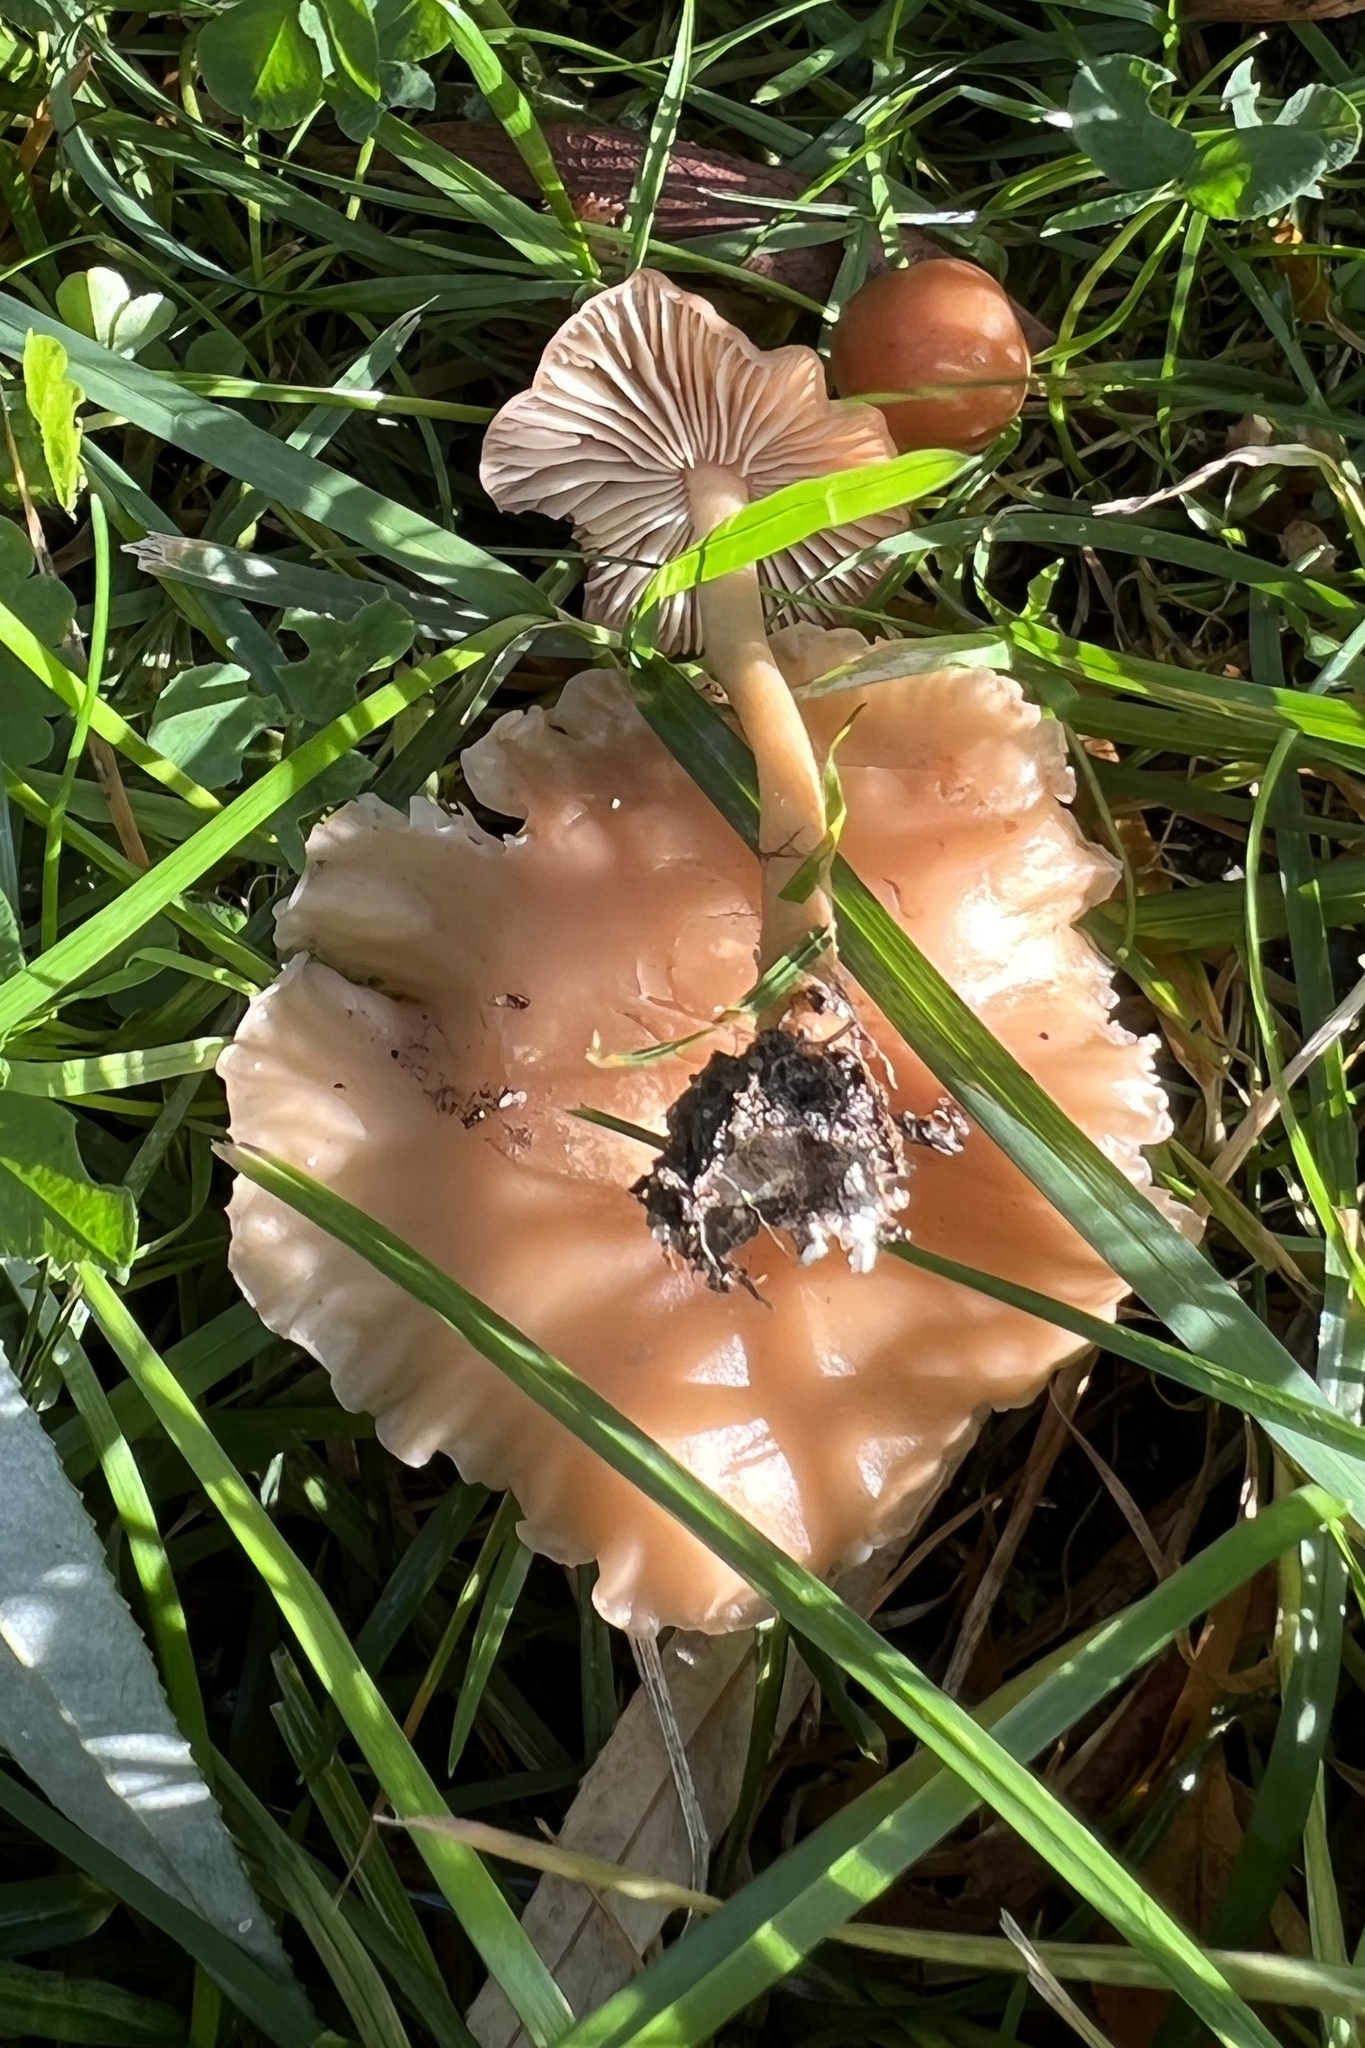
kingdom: Fungi
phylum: Basidiomycota
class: Agaricomycetes
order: Agaricales
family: Marasmiaceae
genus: Marasmius
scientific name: Marasmius oreades
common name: Fairy ring champignon
